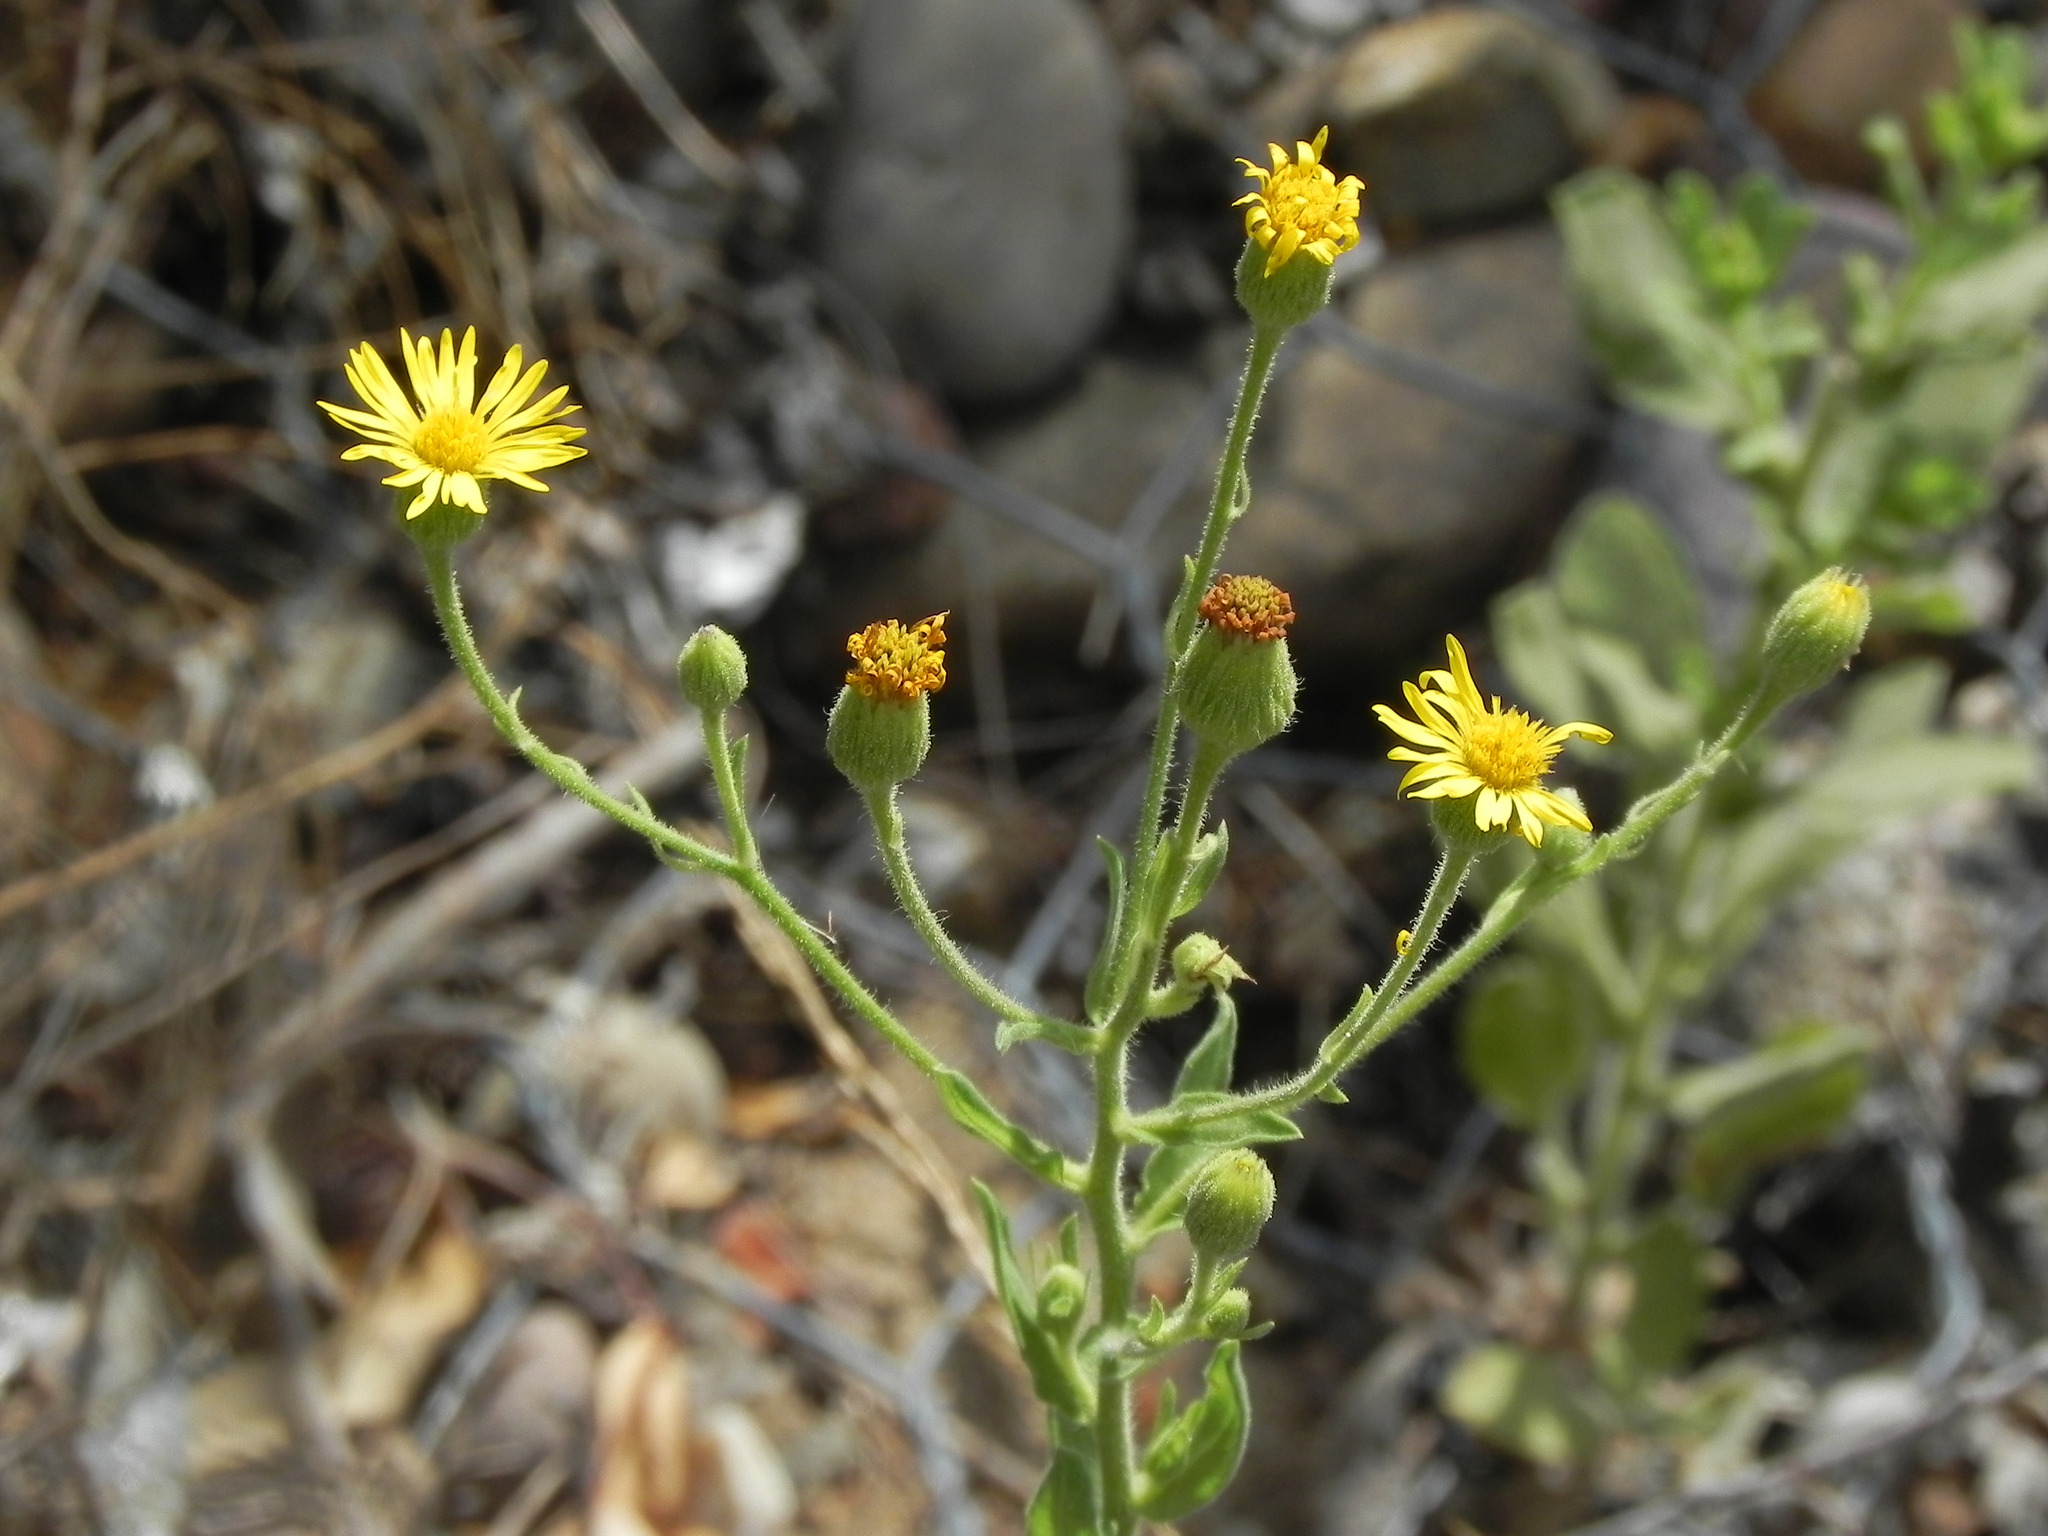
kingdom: Plantae
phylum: Tracheophyta
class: Magnoliopsida
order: Asterales
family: Asteraceae
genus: Heterotheca
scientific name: Heterotheca grandiflora
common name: Telegraphweed
